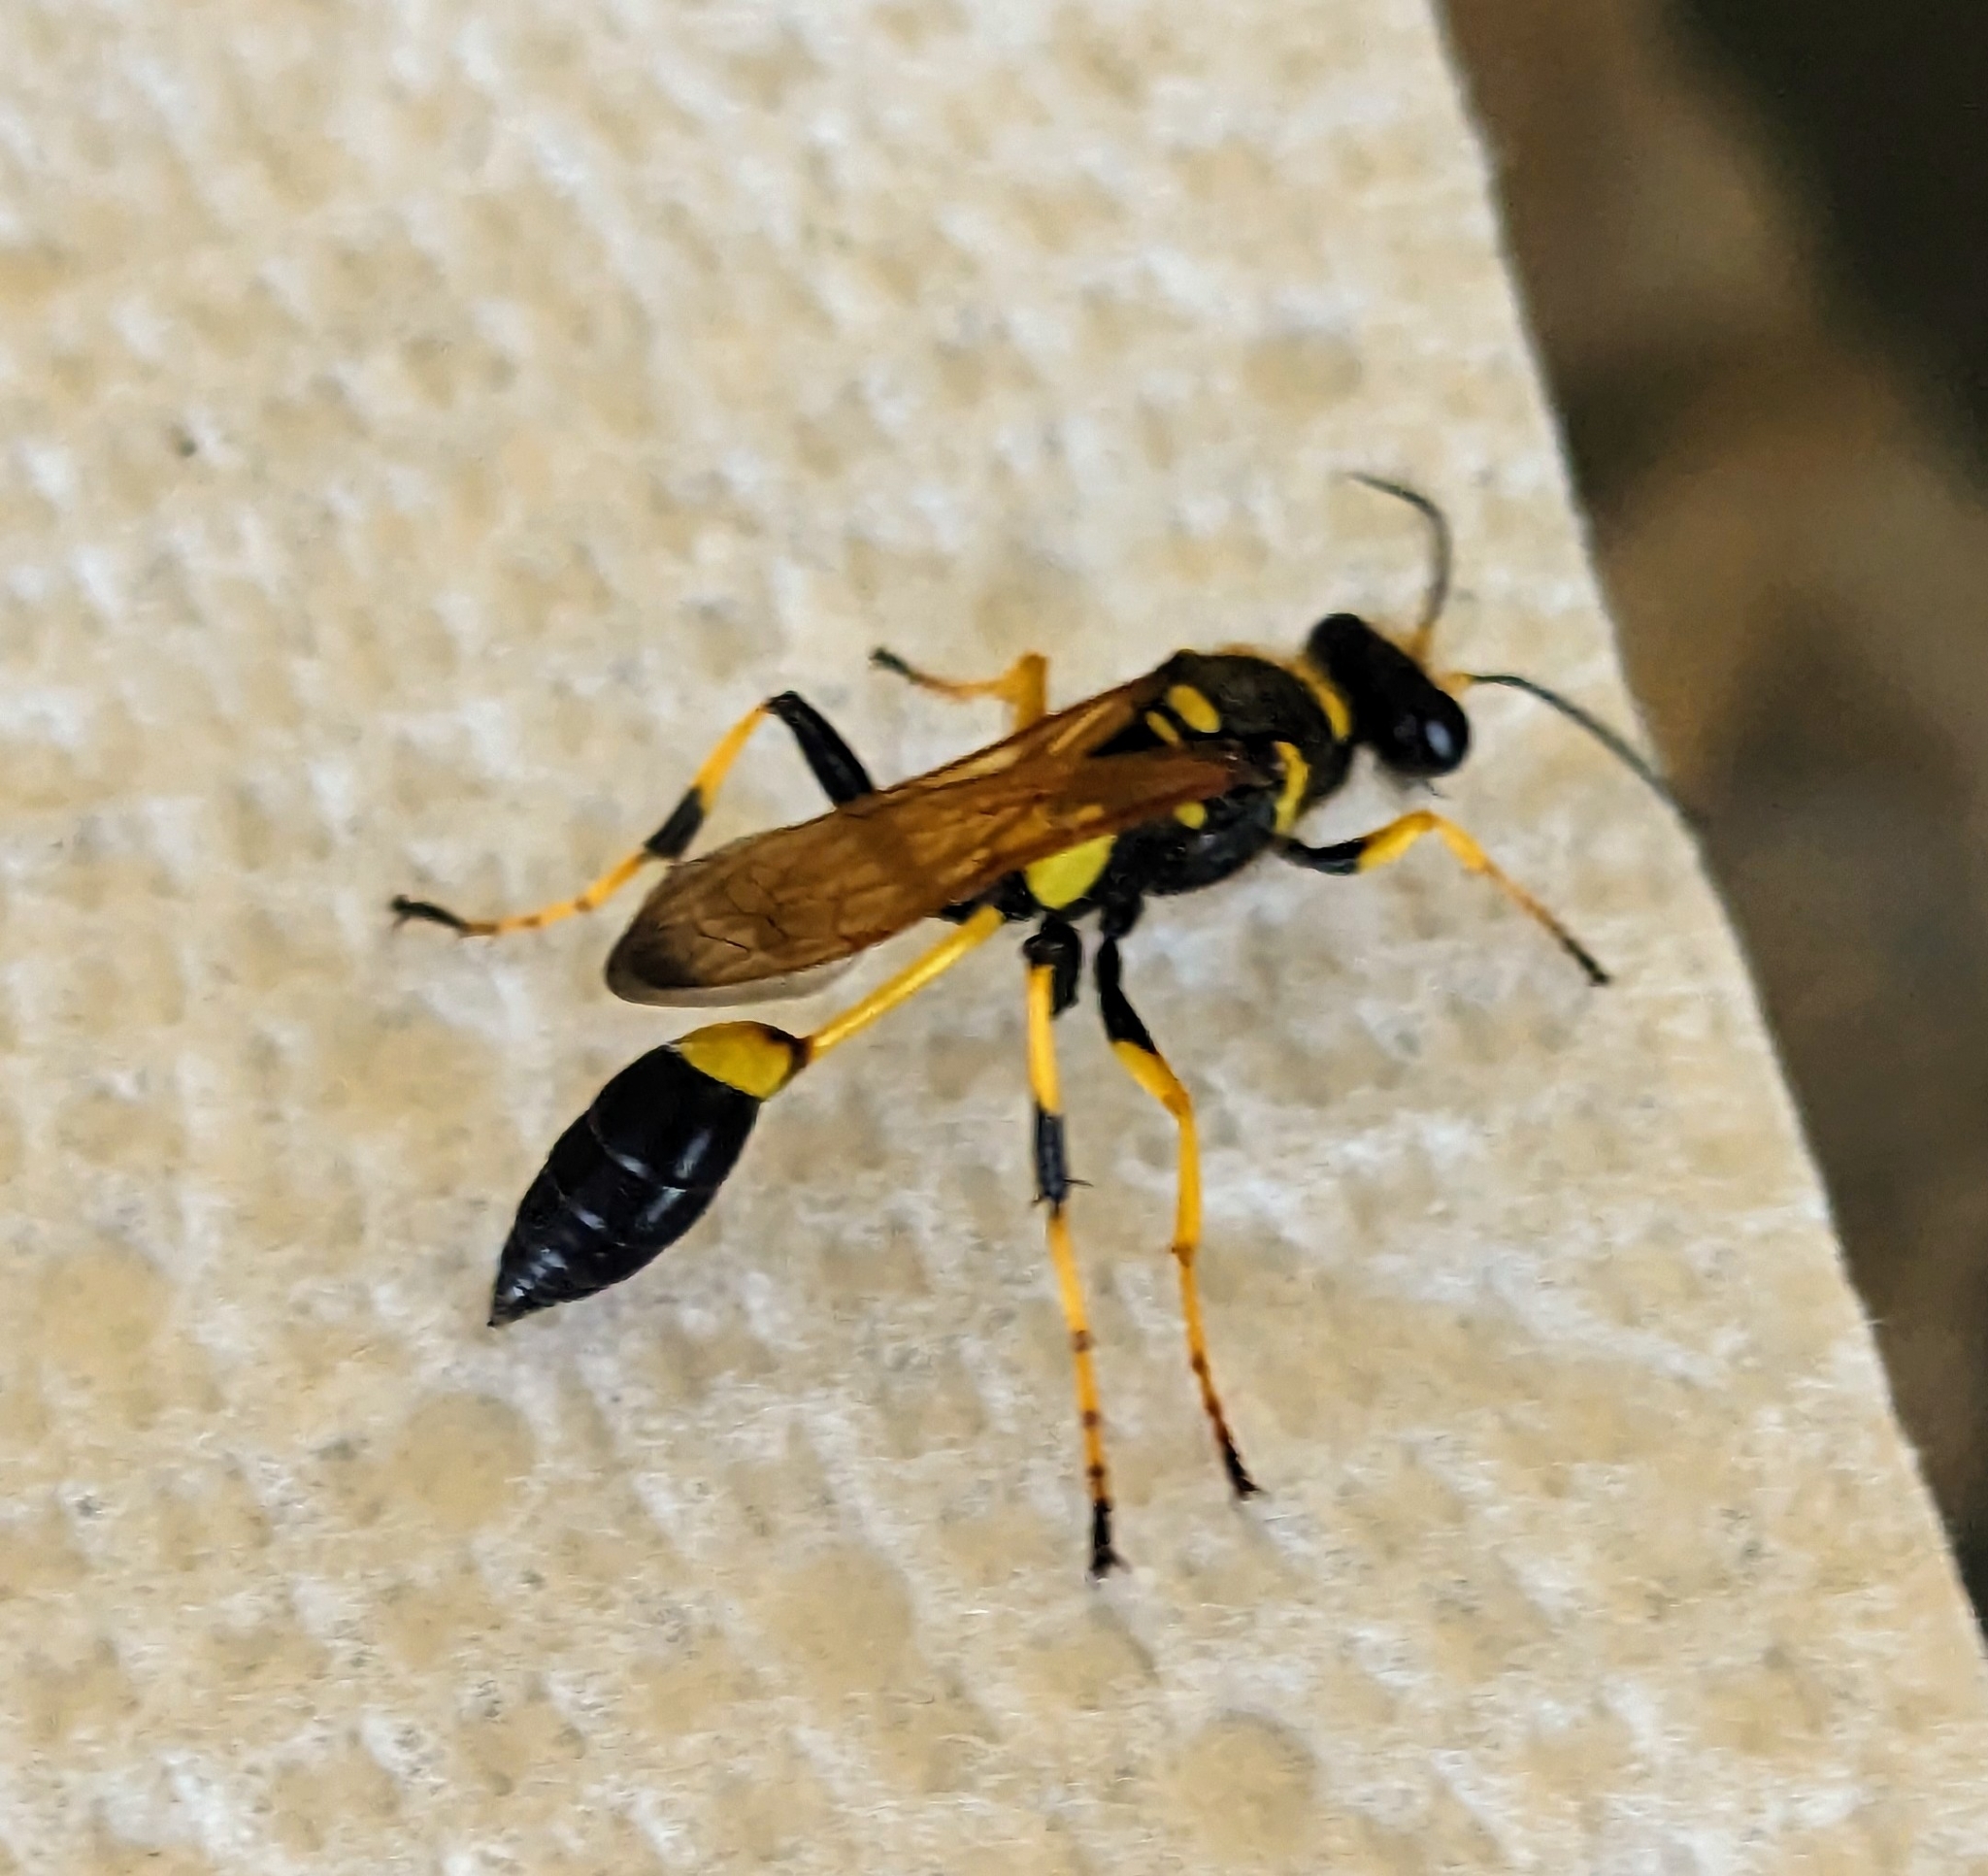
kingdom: Animalia
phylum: Arthropoda
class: Insecta
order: Hymenoptera
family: Sphecidae
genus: Sceliphron
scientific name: Sceliphron caementarium
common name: Mud dauber
